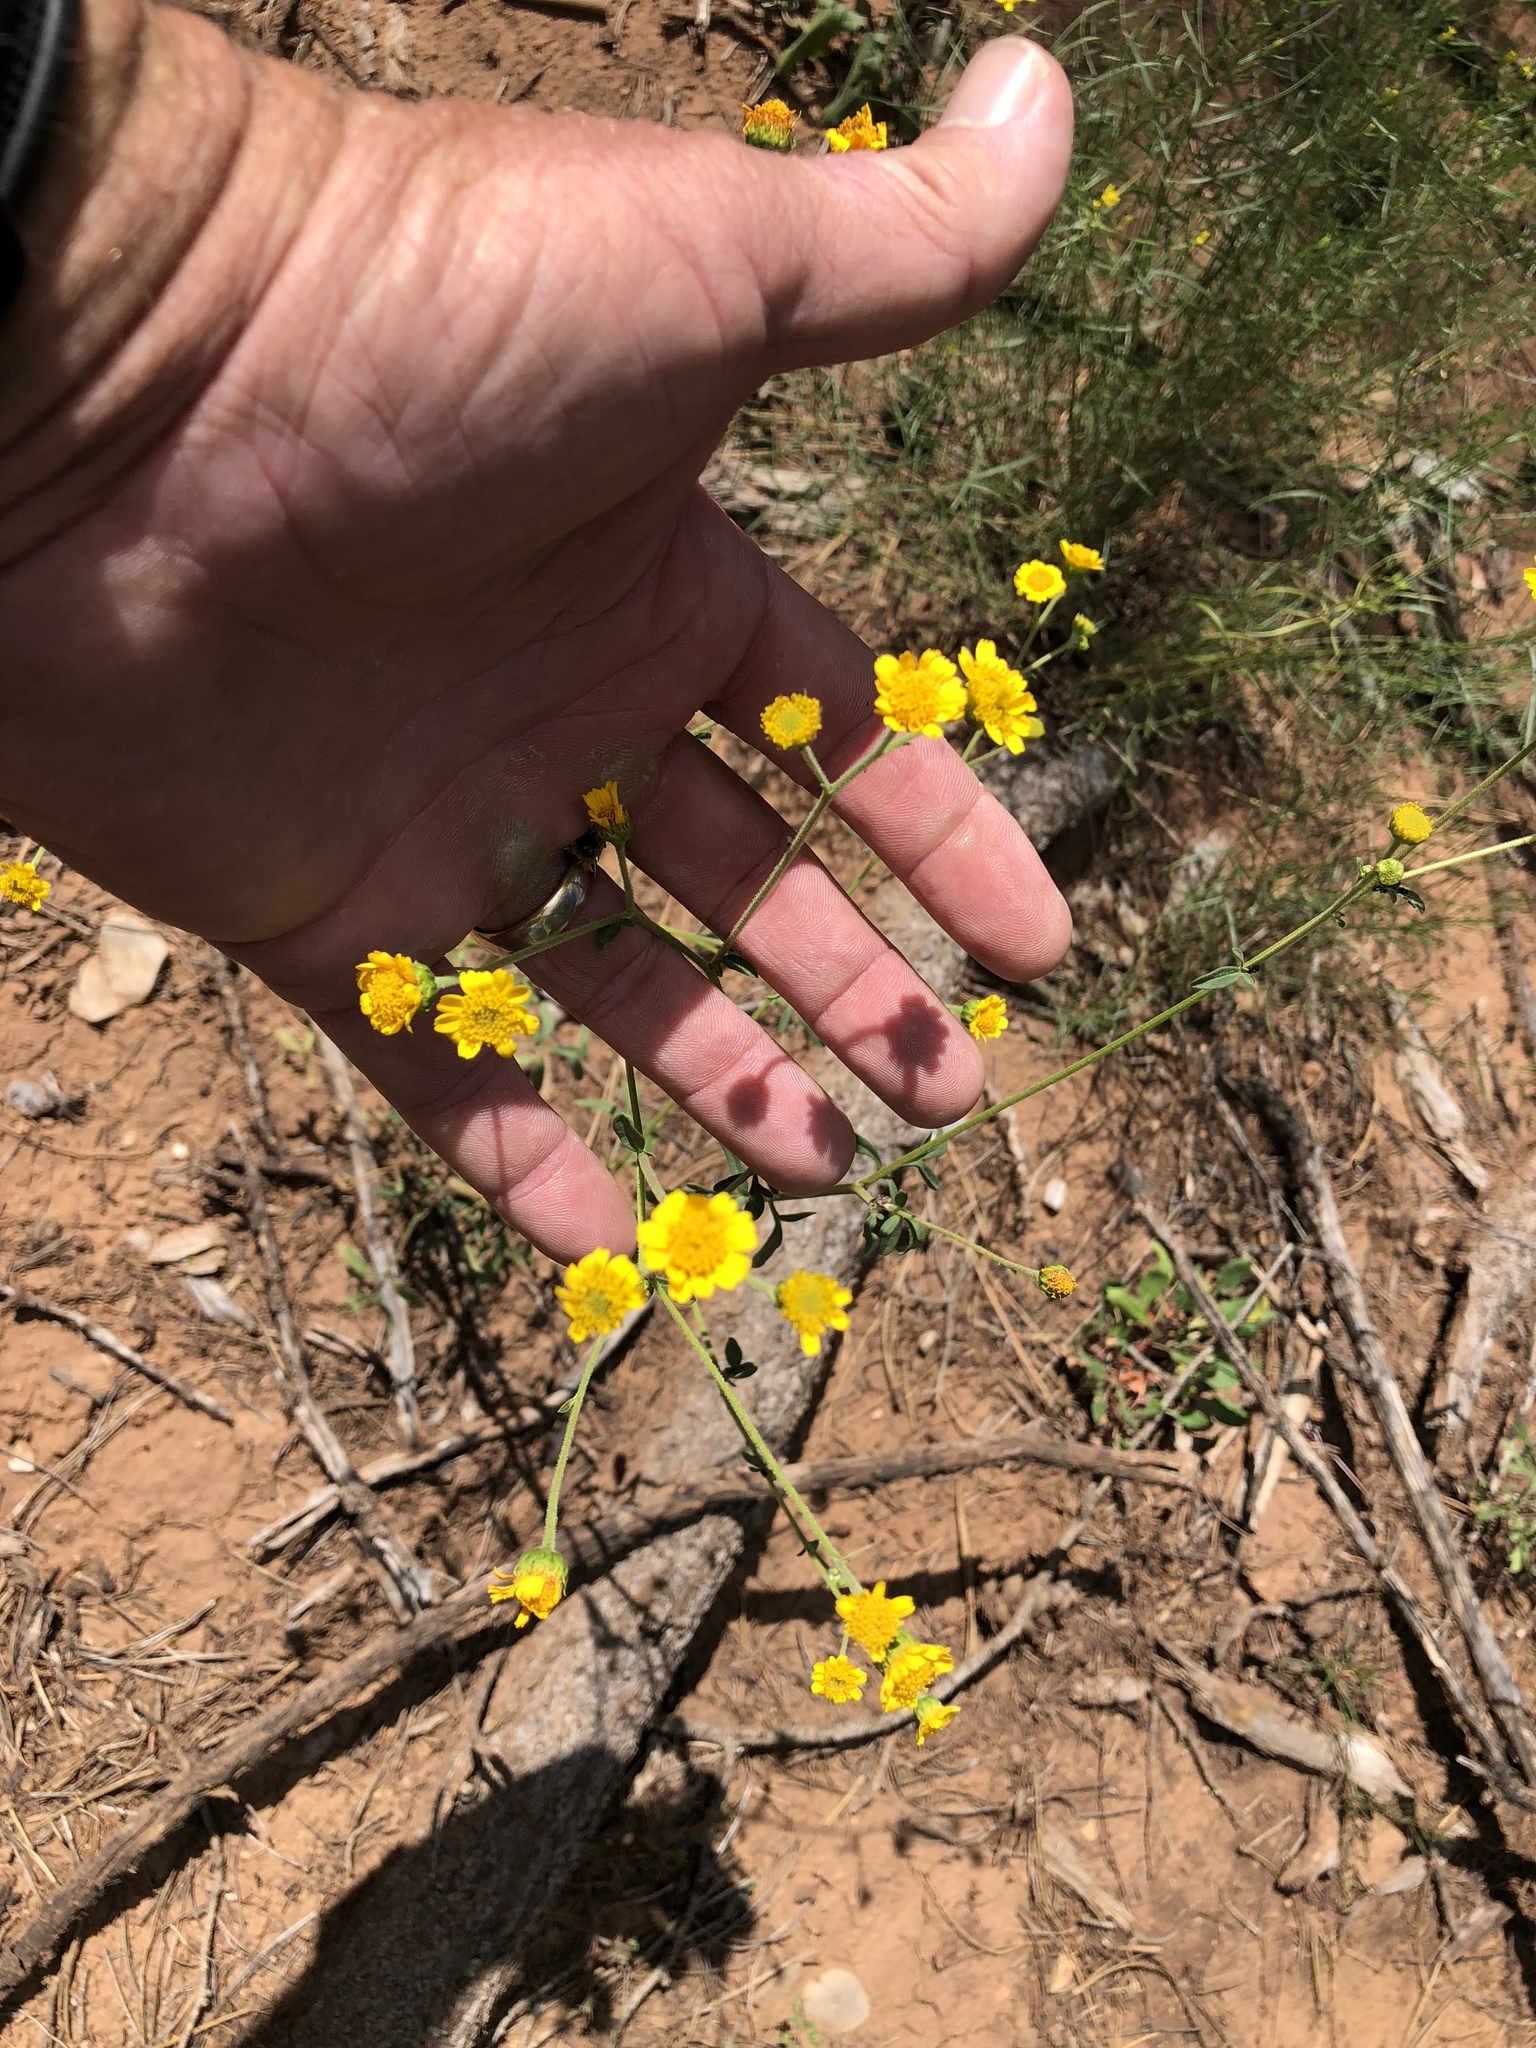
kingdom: Plantae
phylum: Tracheophyta
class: Magnoliopsida
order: Asterales
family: Asteraceae
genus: Hymenothrix
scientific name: Hymenothrix dissecta
